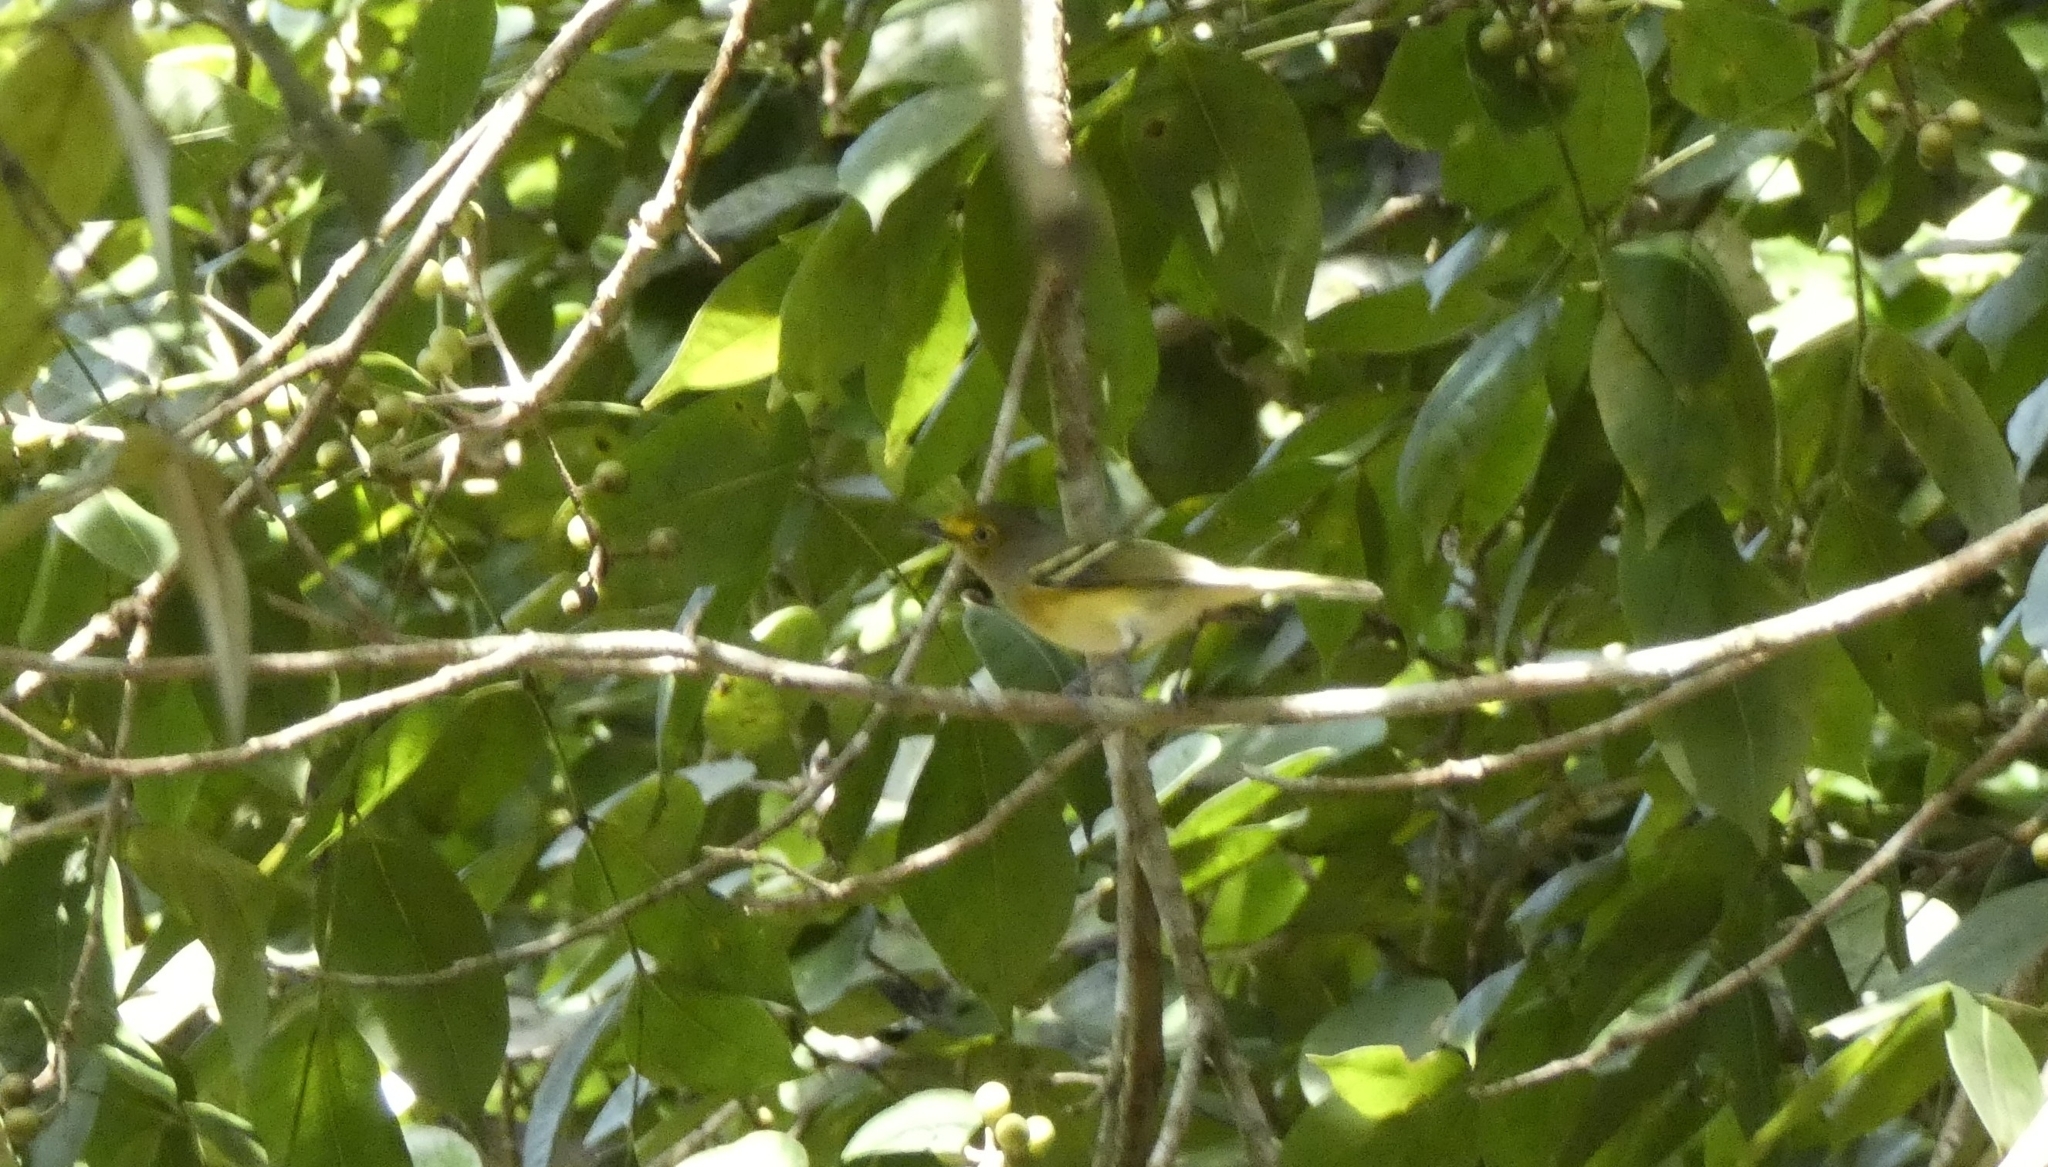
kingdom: Animalia
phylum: Chordata
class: Aves
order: Passeriformes
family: Vireonidae
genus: Vireo
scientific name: Vireo griseus
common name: White-eyed vireo
